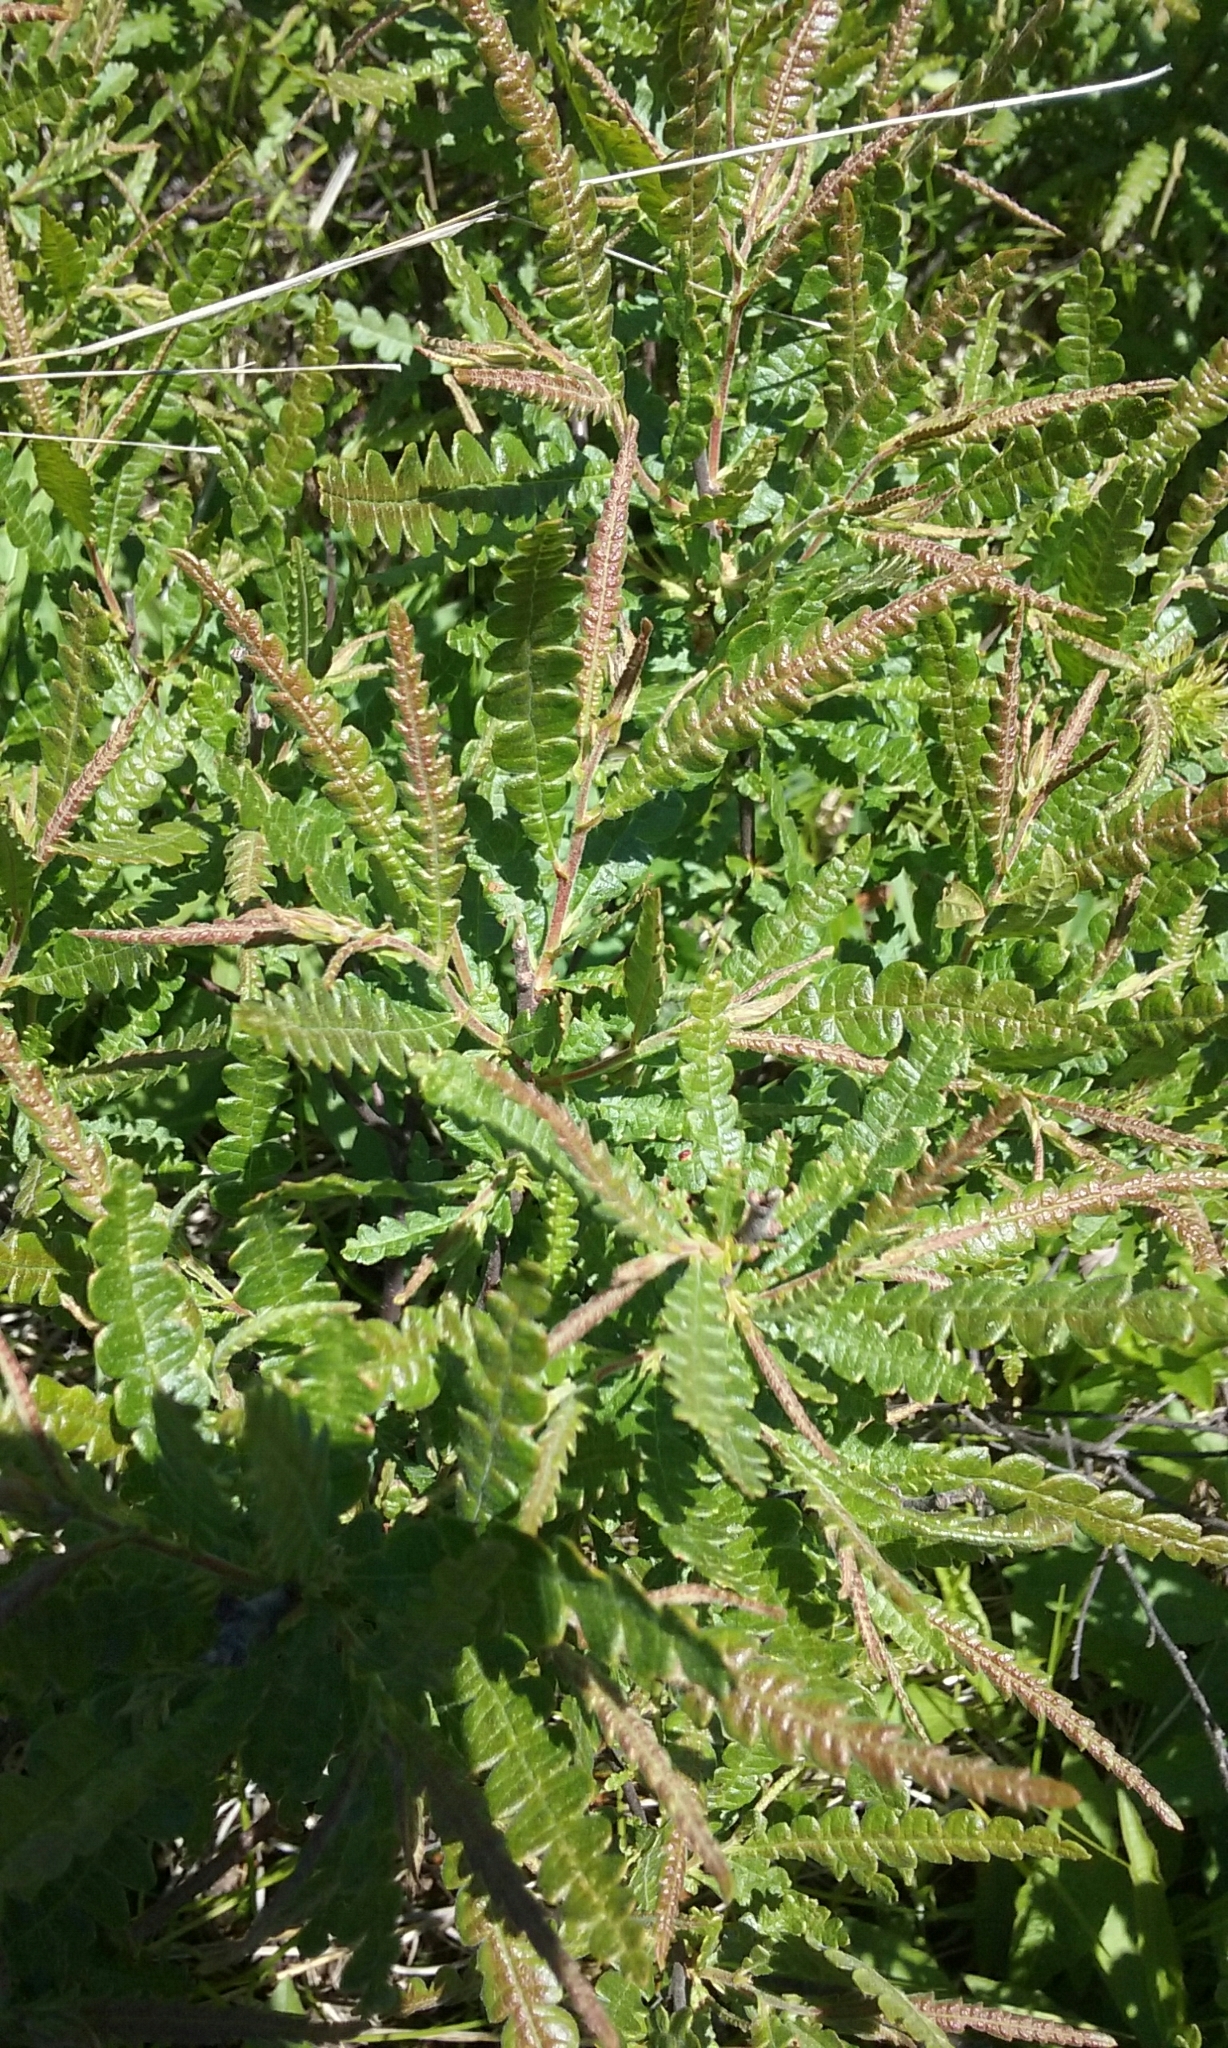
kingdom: Plantae
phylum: Tracheophyta
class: Magnoliopsida
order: Fagales
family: Myricaceae
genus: Comptonia
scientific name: Comptonia peregrina
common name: Sweet-fern
